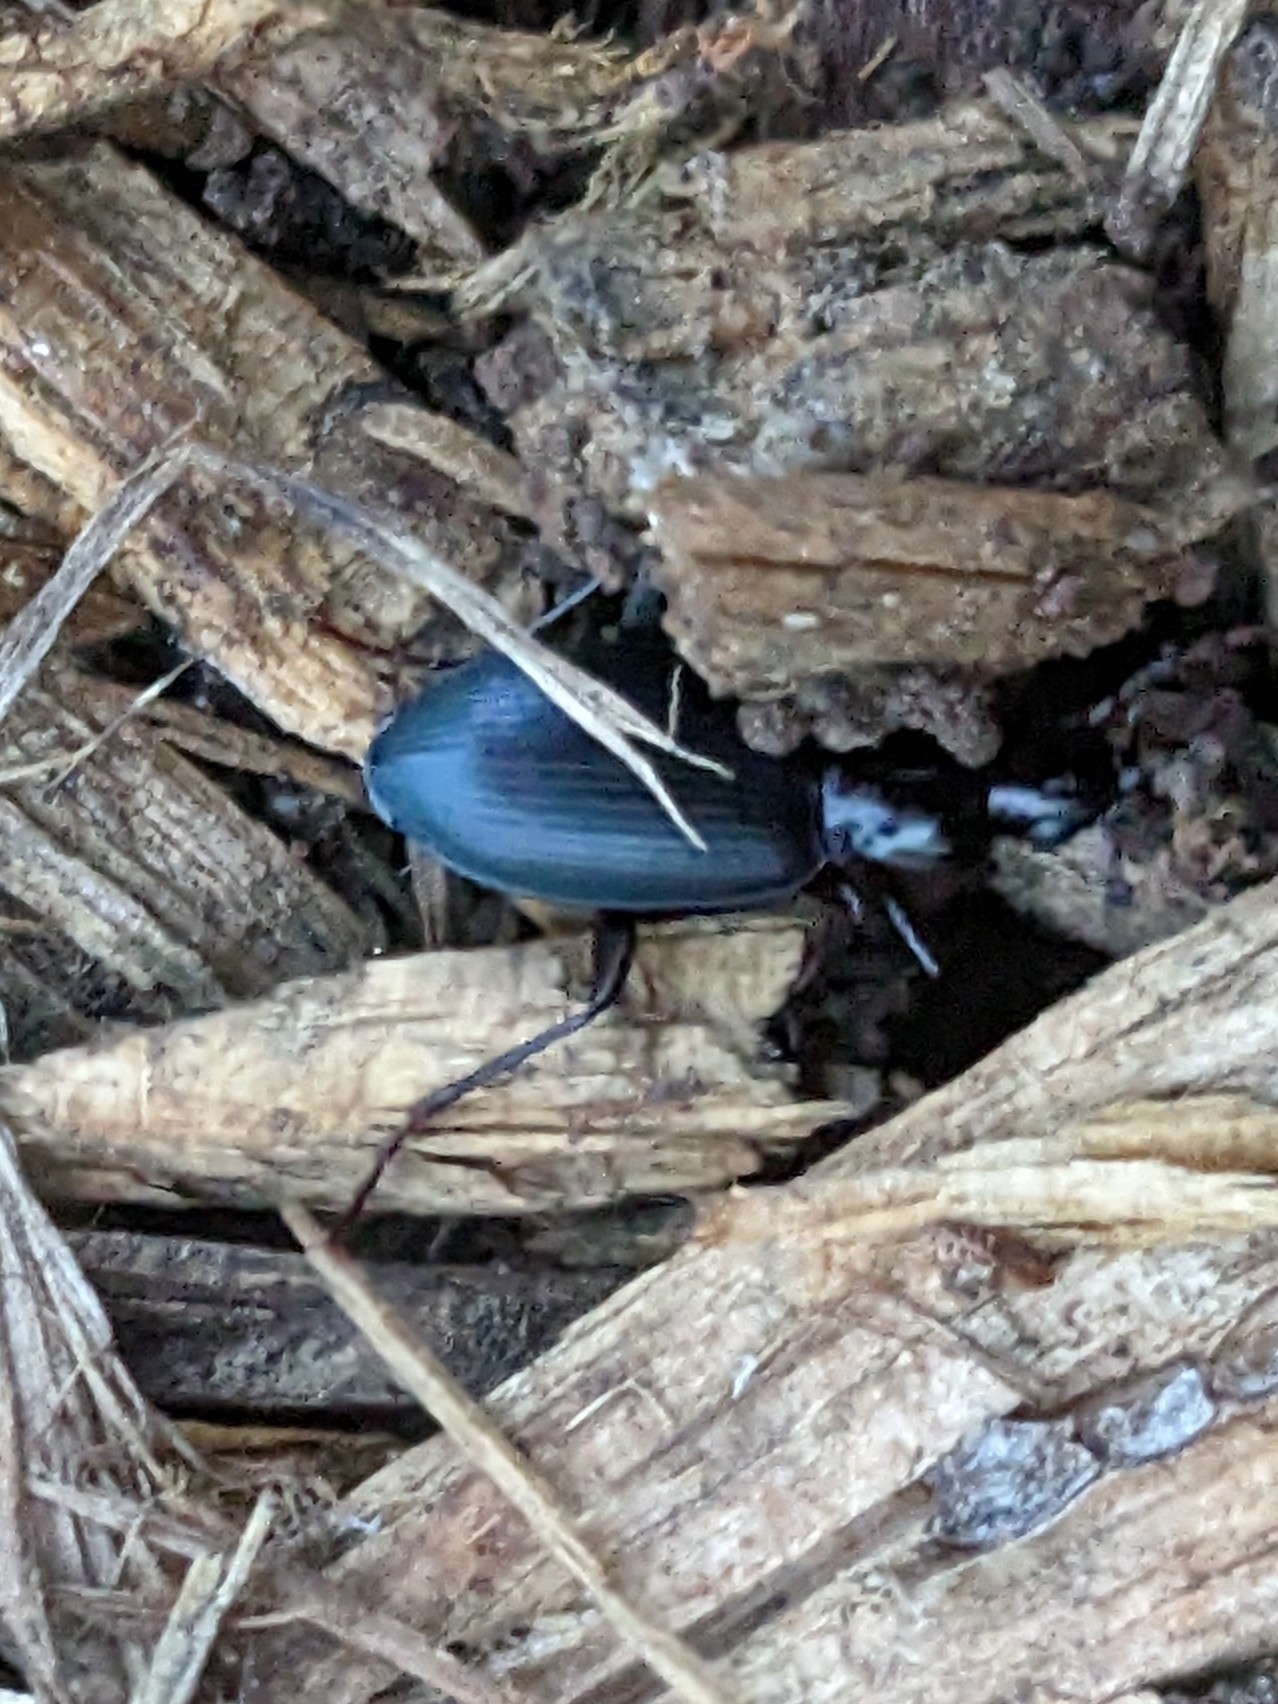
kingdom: Animalia
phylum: Arthropoda
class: Insecta
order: Coleoptera
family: Carabidae
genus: Laemostenus
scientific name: Laemostenus complanatus
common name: Cosmopolitan ground beetle
